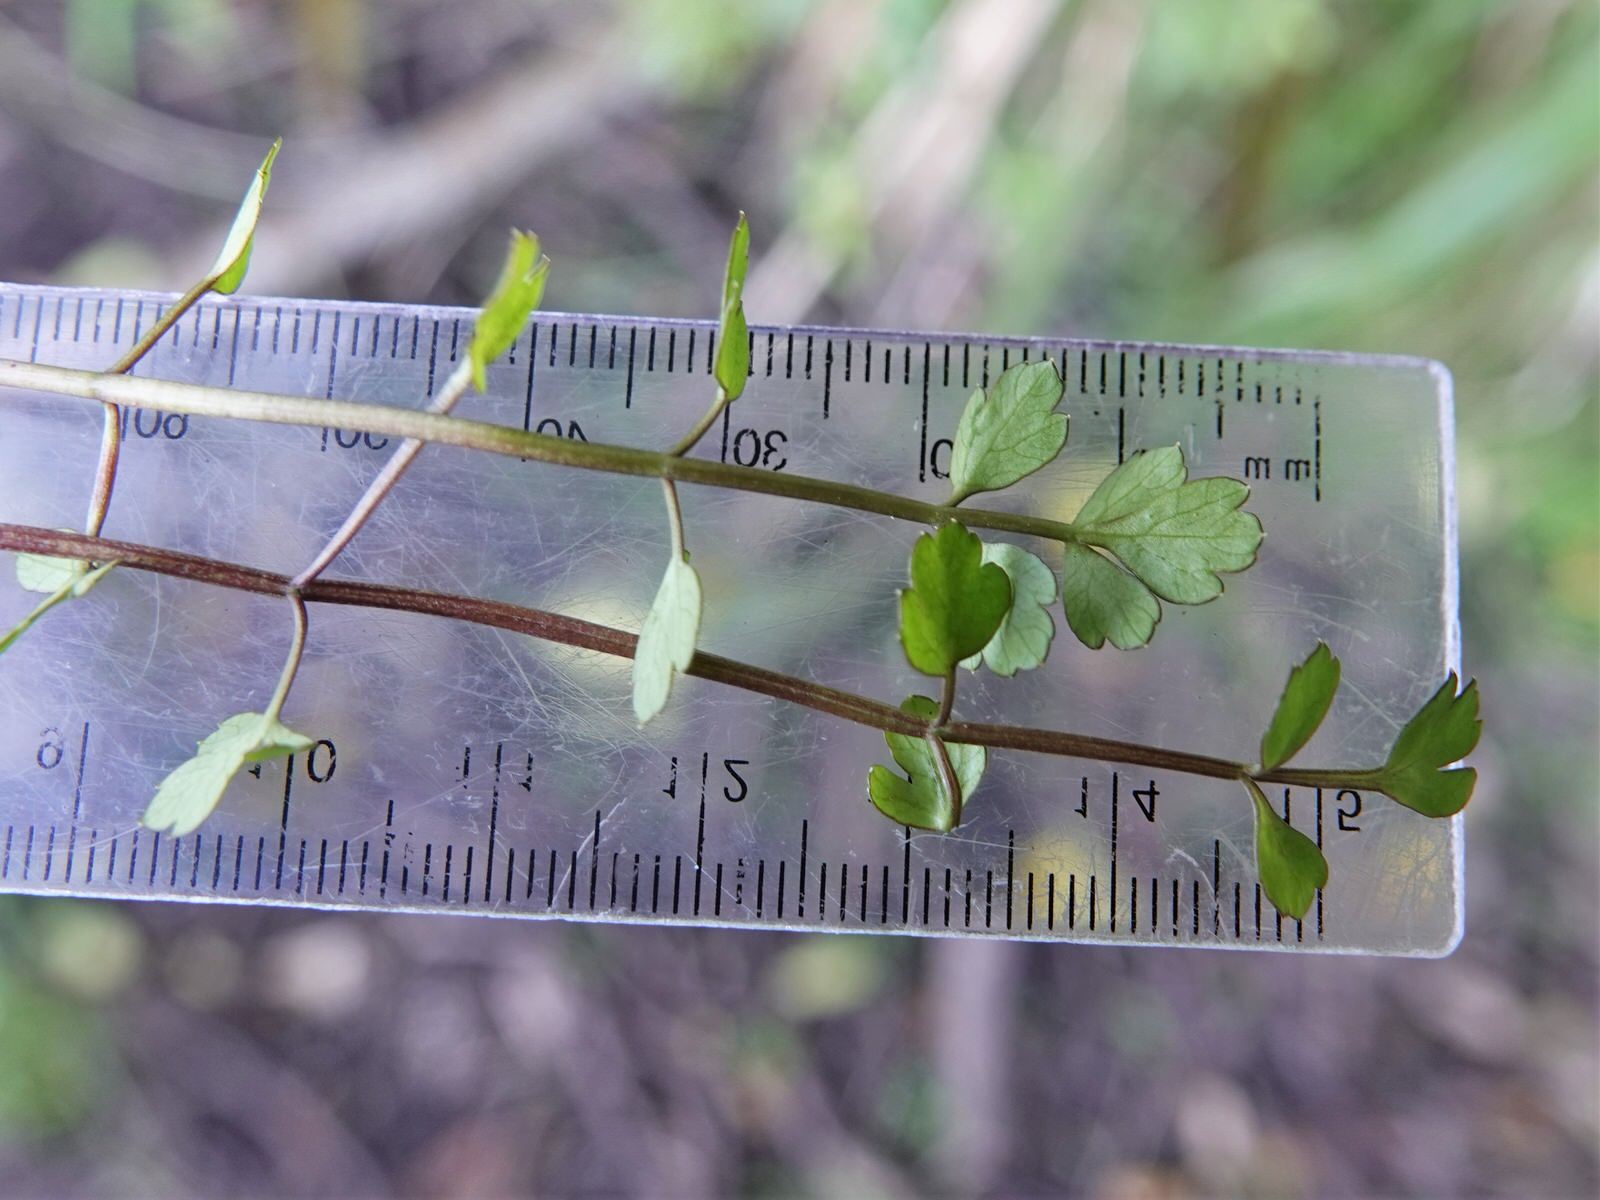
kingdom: Plantae
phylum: Tracheophyta
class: Magnoliopsida
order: Apiales
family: Apiaceae
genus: Apium
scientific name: Apium prostratum
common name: Prostrate marshwort
